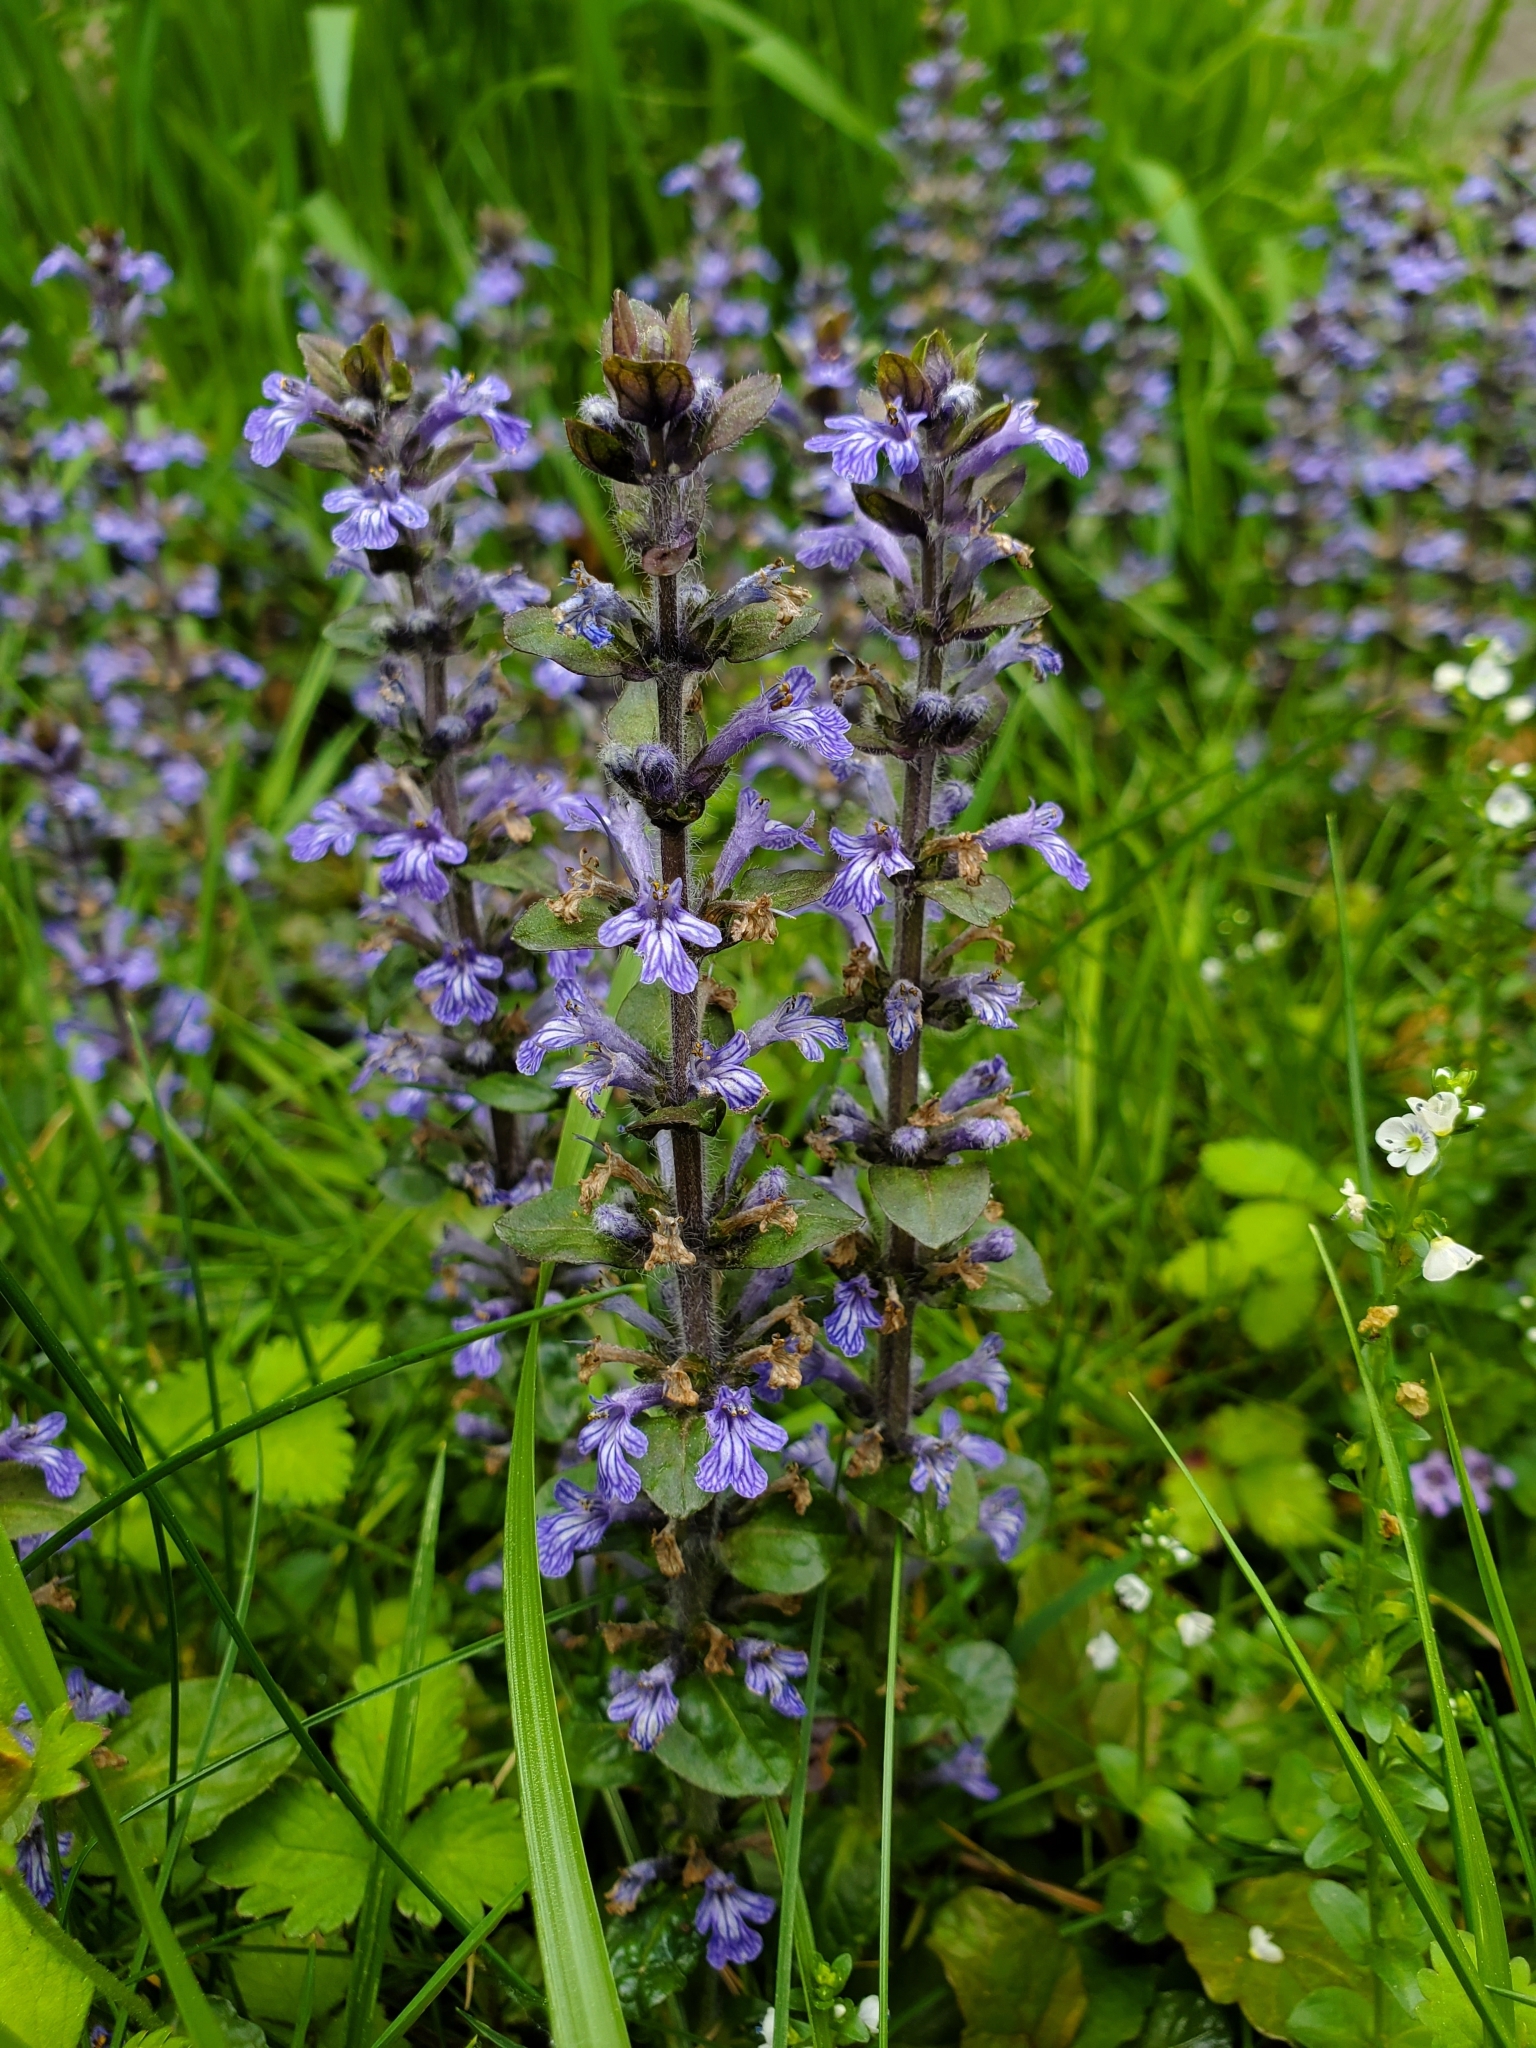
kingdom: Plantae
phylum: Tracheophyta
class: Magnoliopsida
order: Lamiales
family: Lamiaceae
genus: Ajuga
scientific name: Ajuga reptans
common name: Bugle
